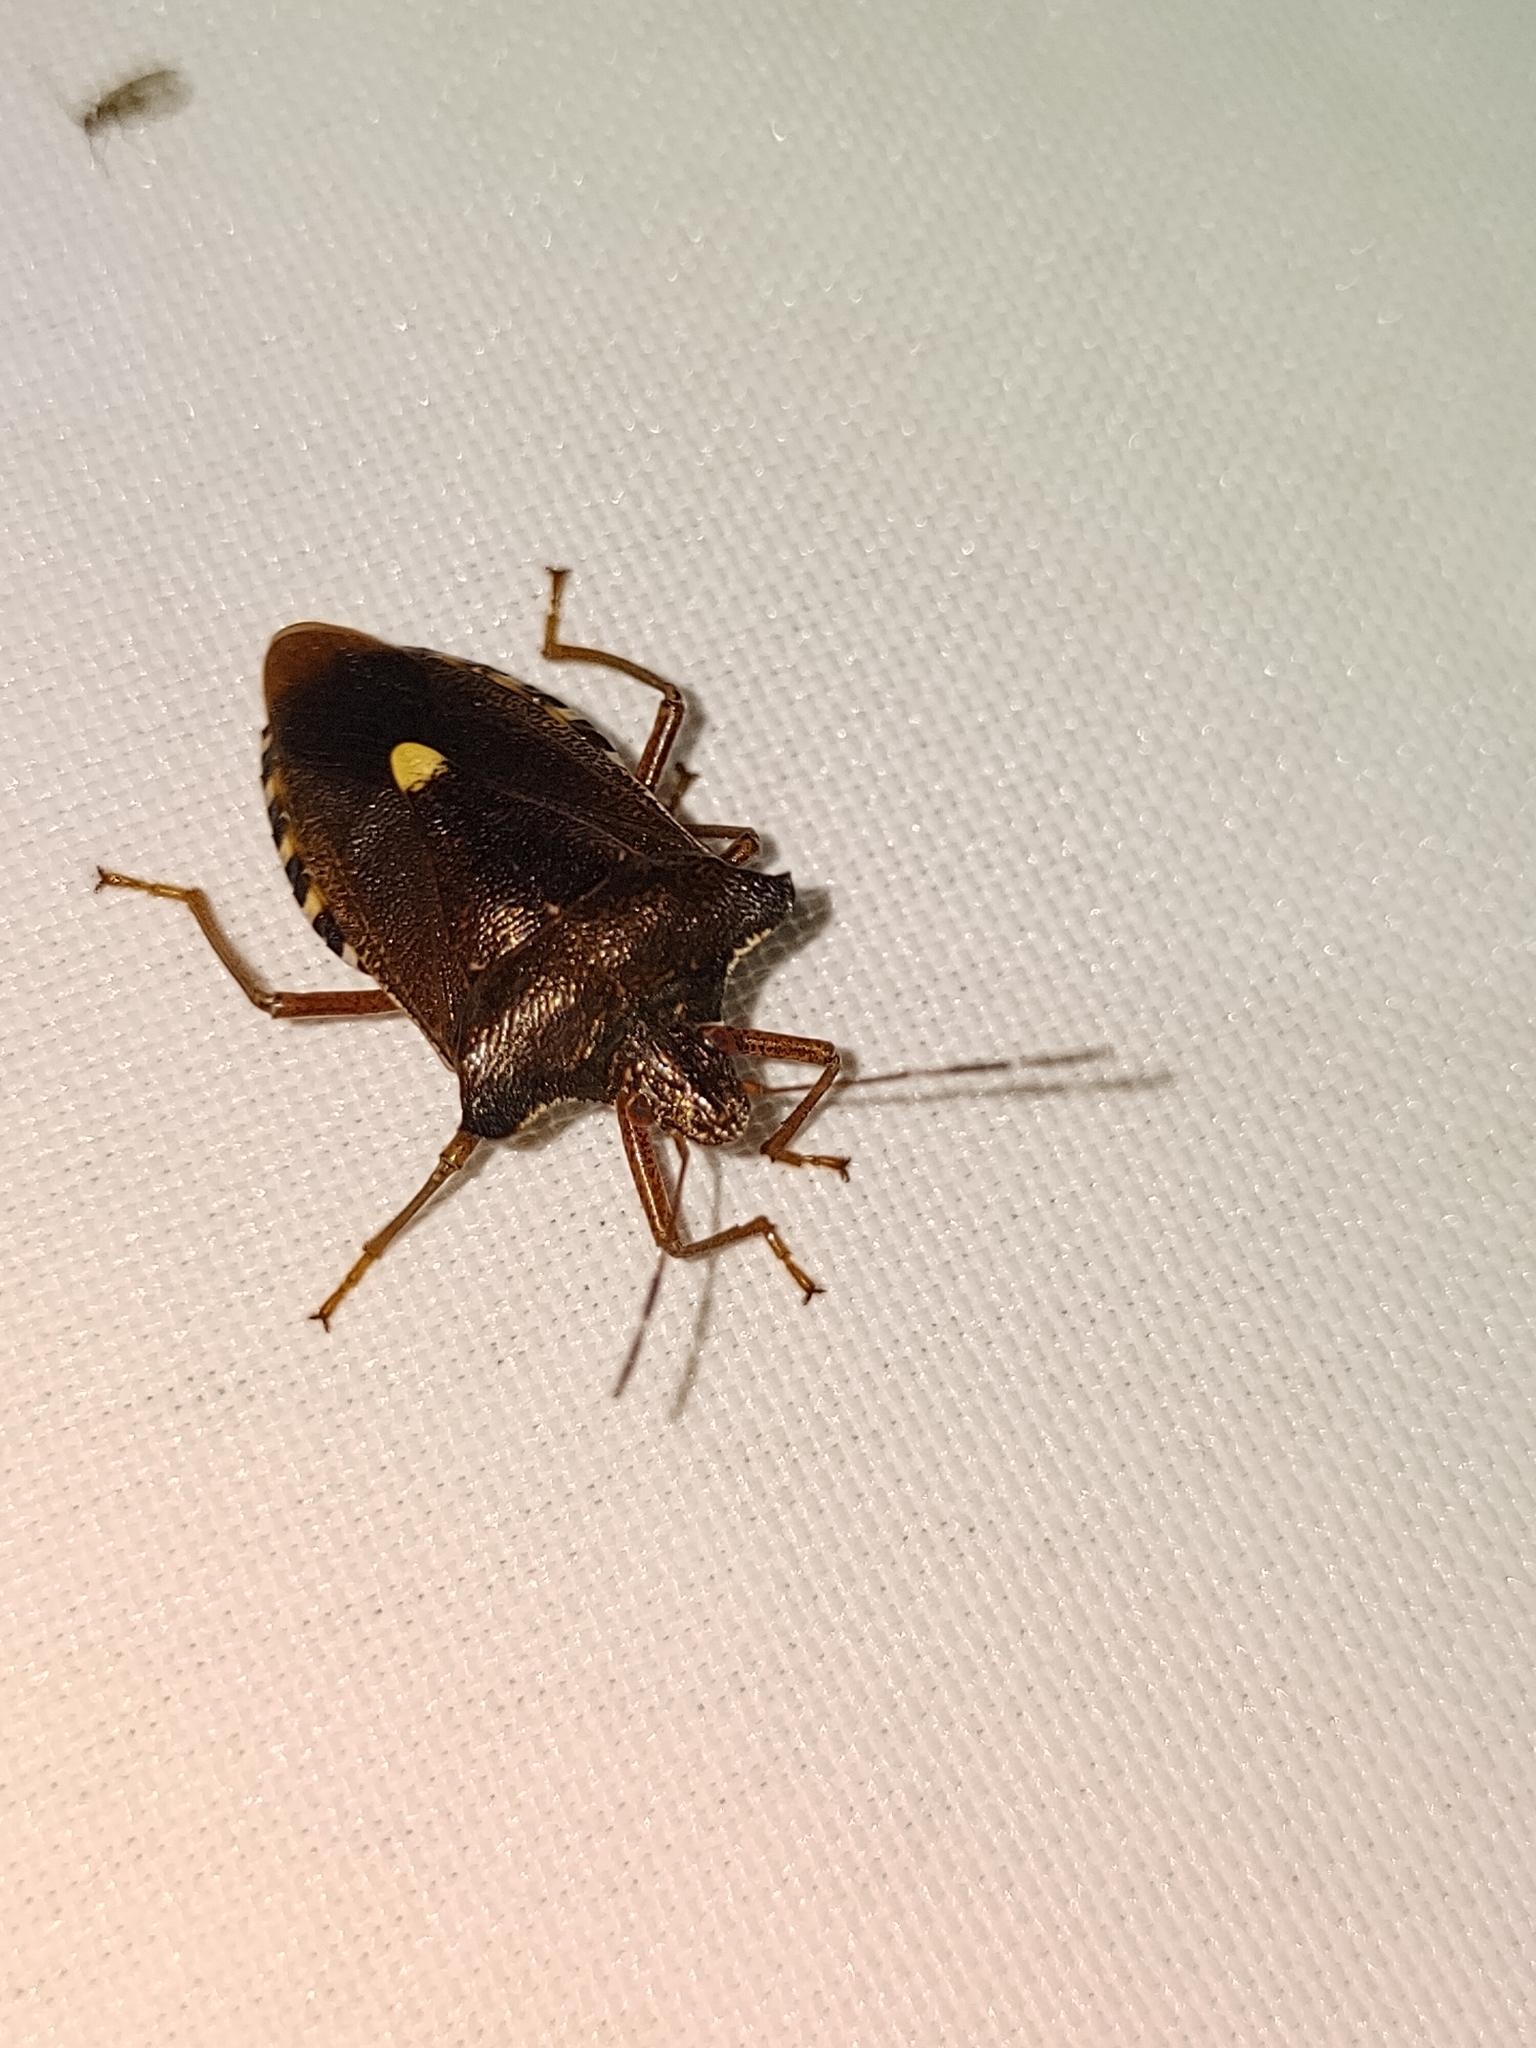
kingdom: Animalia
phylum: Arthropoda
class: Insecta
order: Hemiptera
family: Pentatomidae
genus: Pentatoma
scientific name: Pentatoma rufipes
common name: Forest bug
